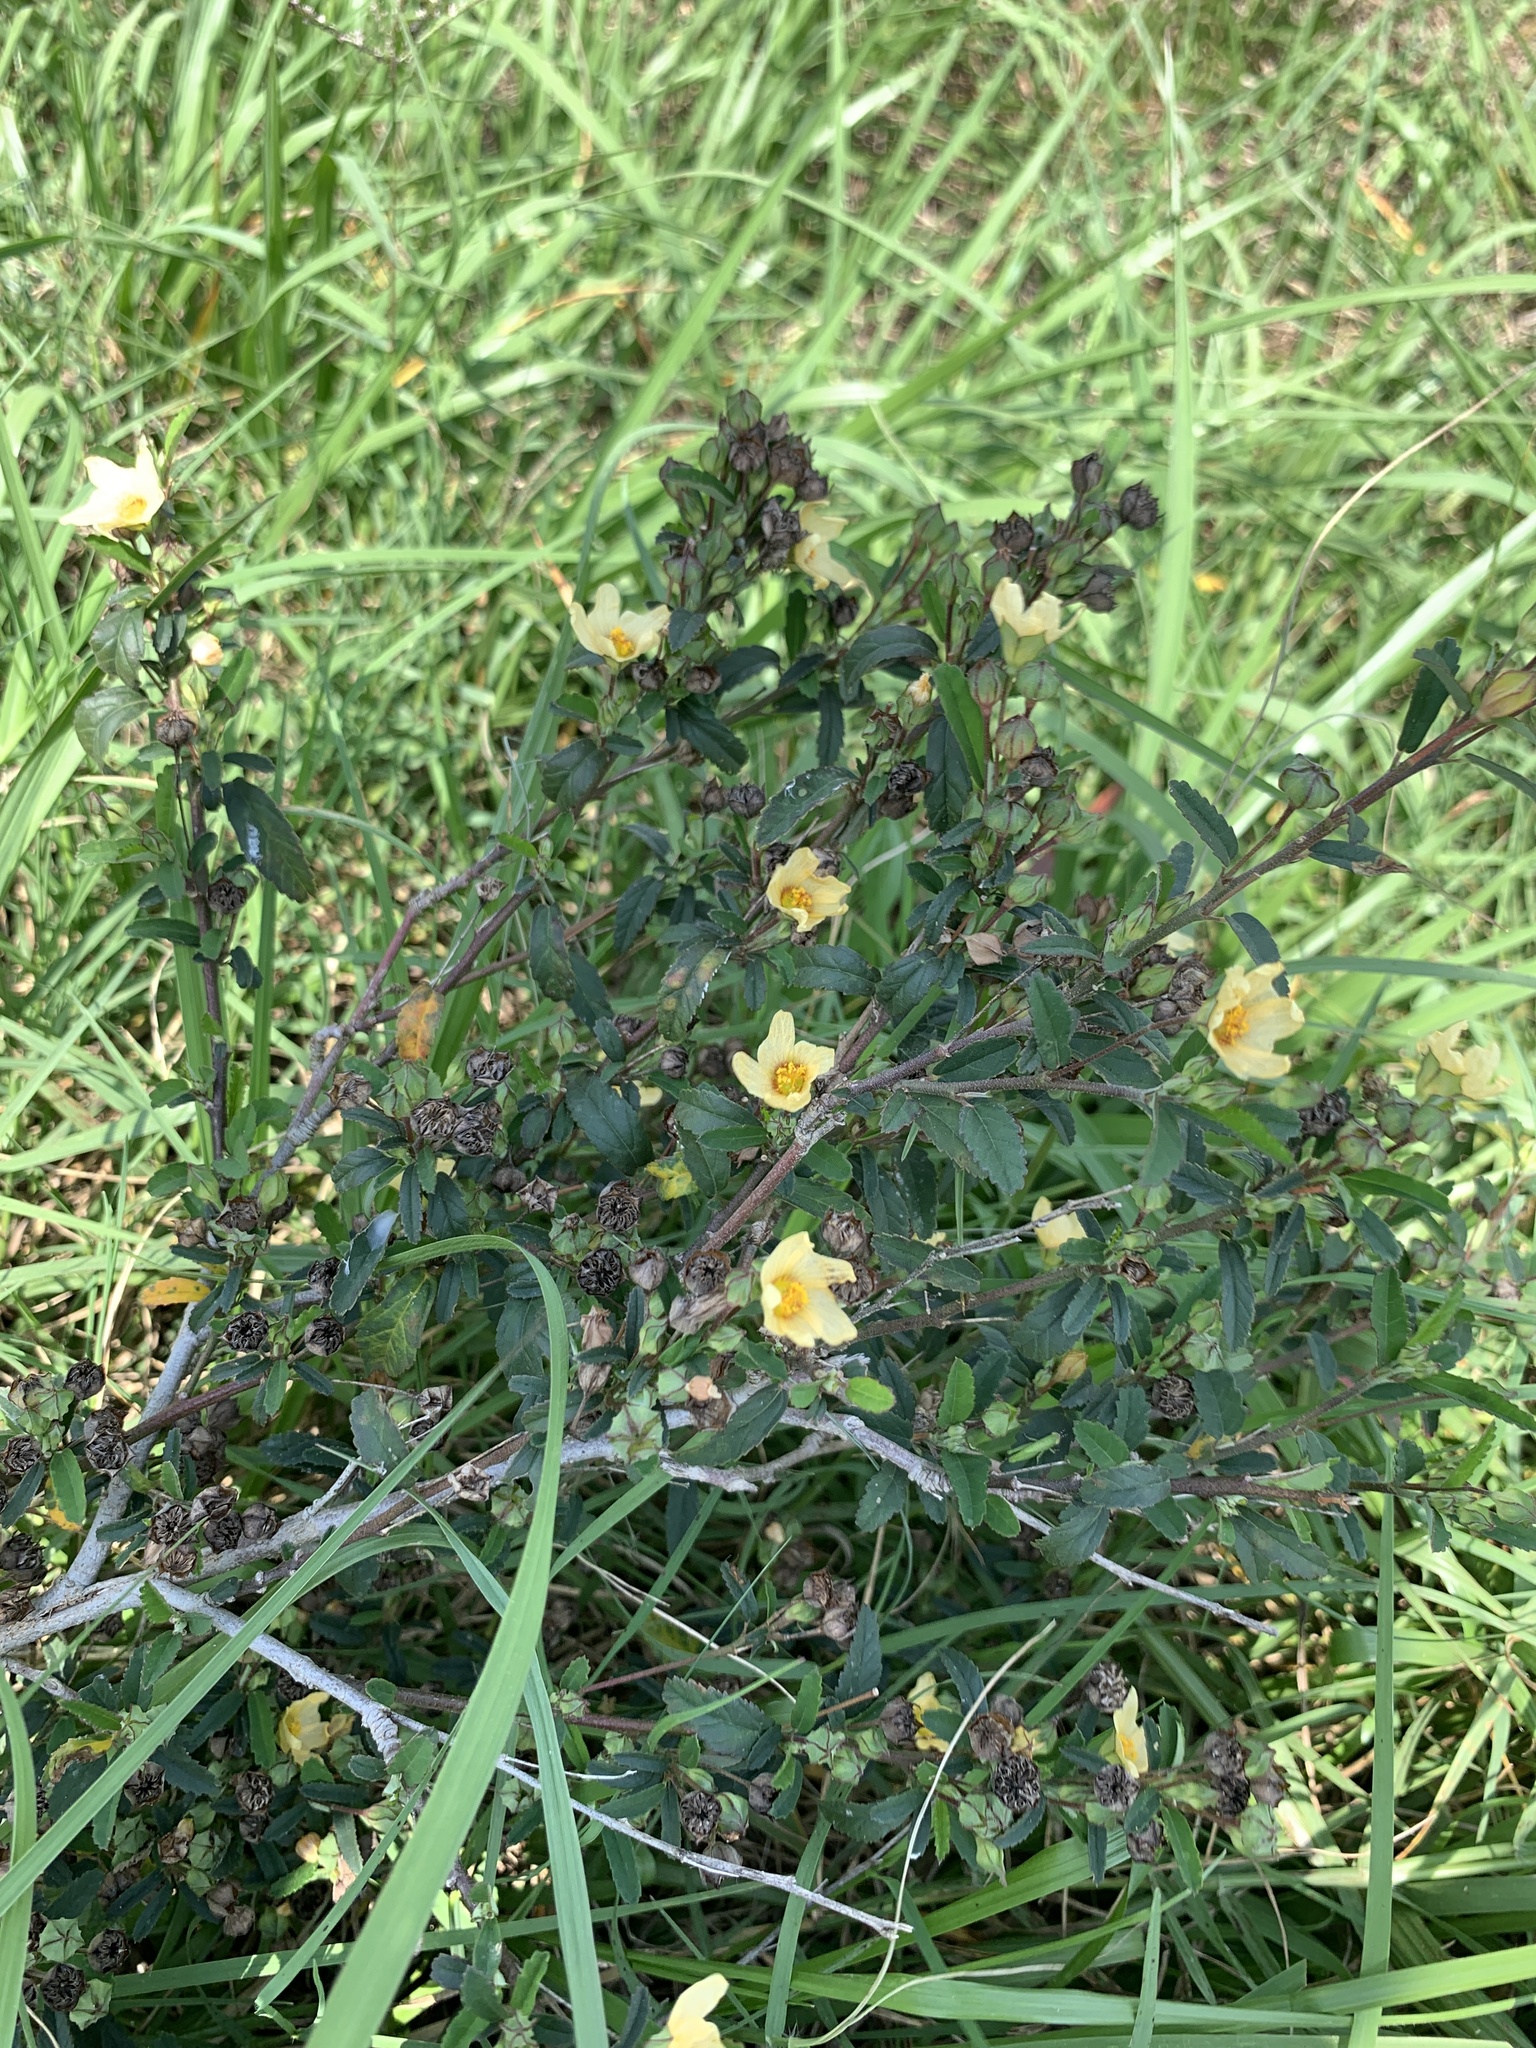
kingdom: Plantae
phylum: Tracheophyta
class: Magnoliopsida
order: Malvales
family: Malvaceae
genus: Sida
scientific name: Sida rhombifolia
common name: Queensland-hemp
